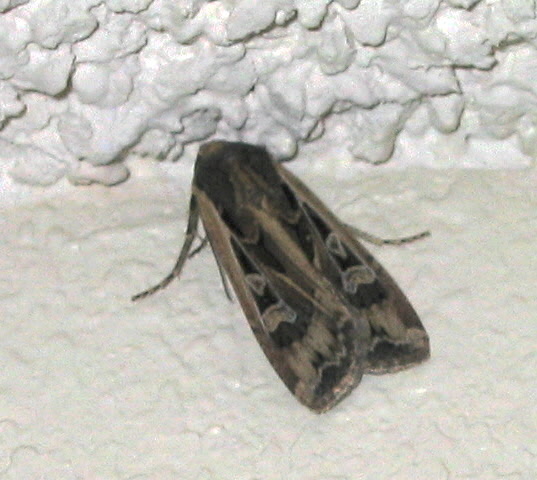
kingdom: Animalia
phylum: Arthropoda
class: Insecta
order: Lepidoptera
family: Noctuidae
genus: Euxoa
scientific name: Euxoa auxiliaris
